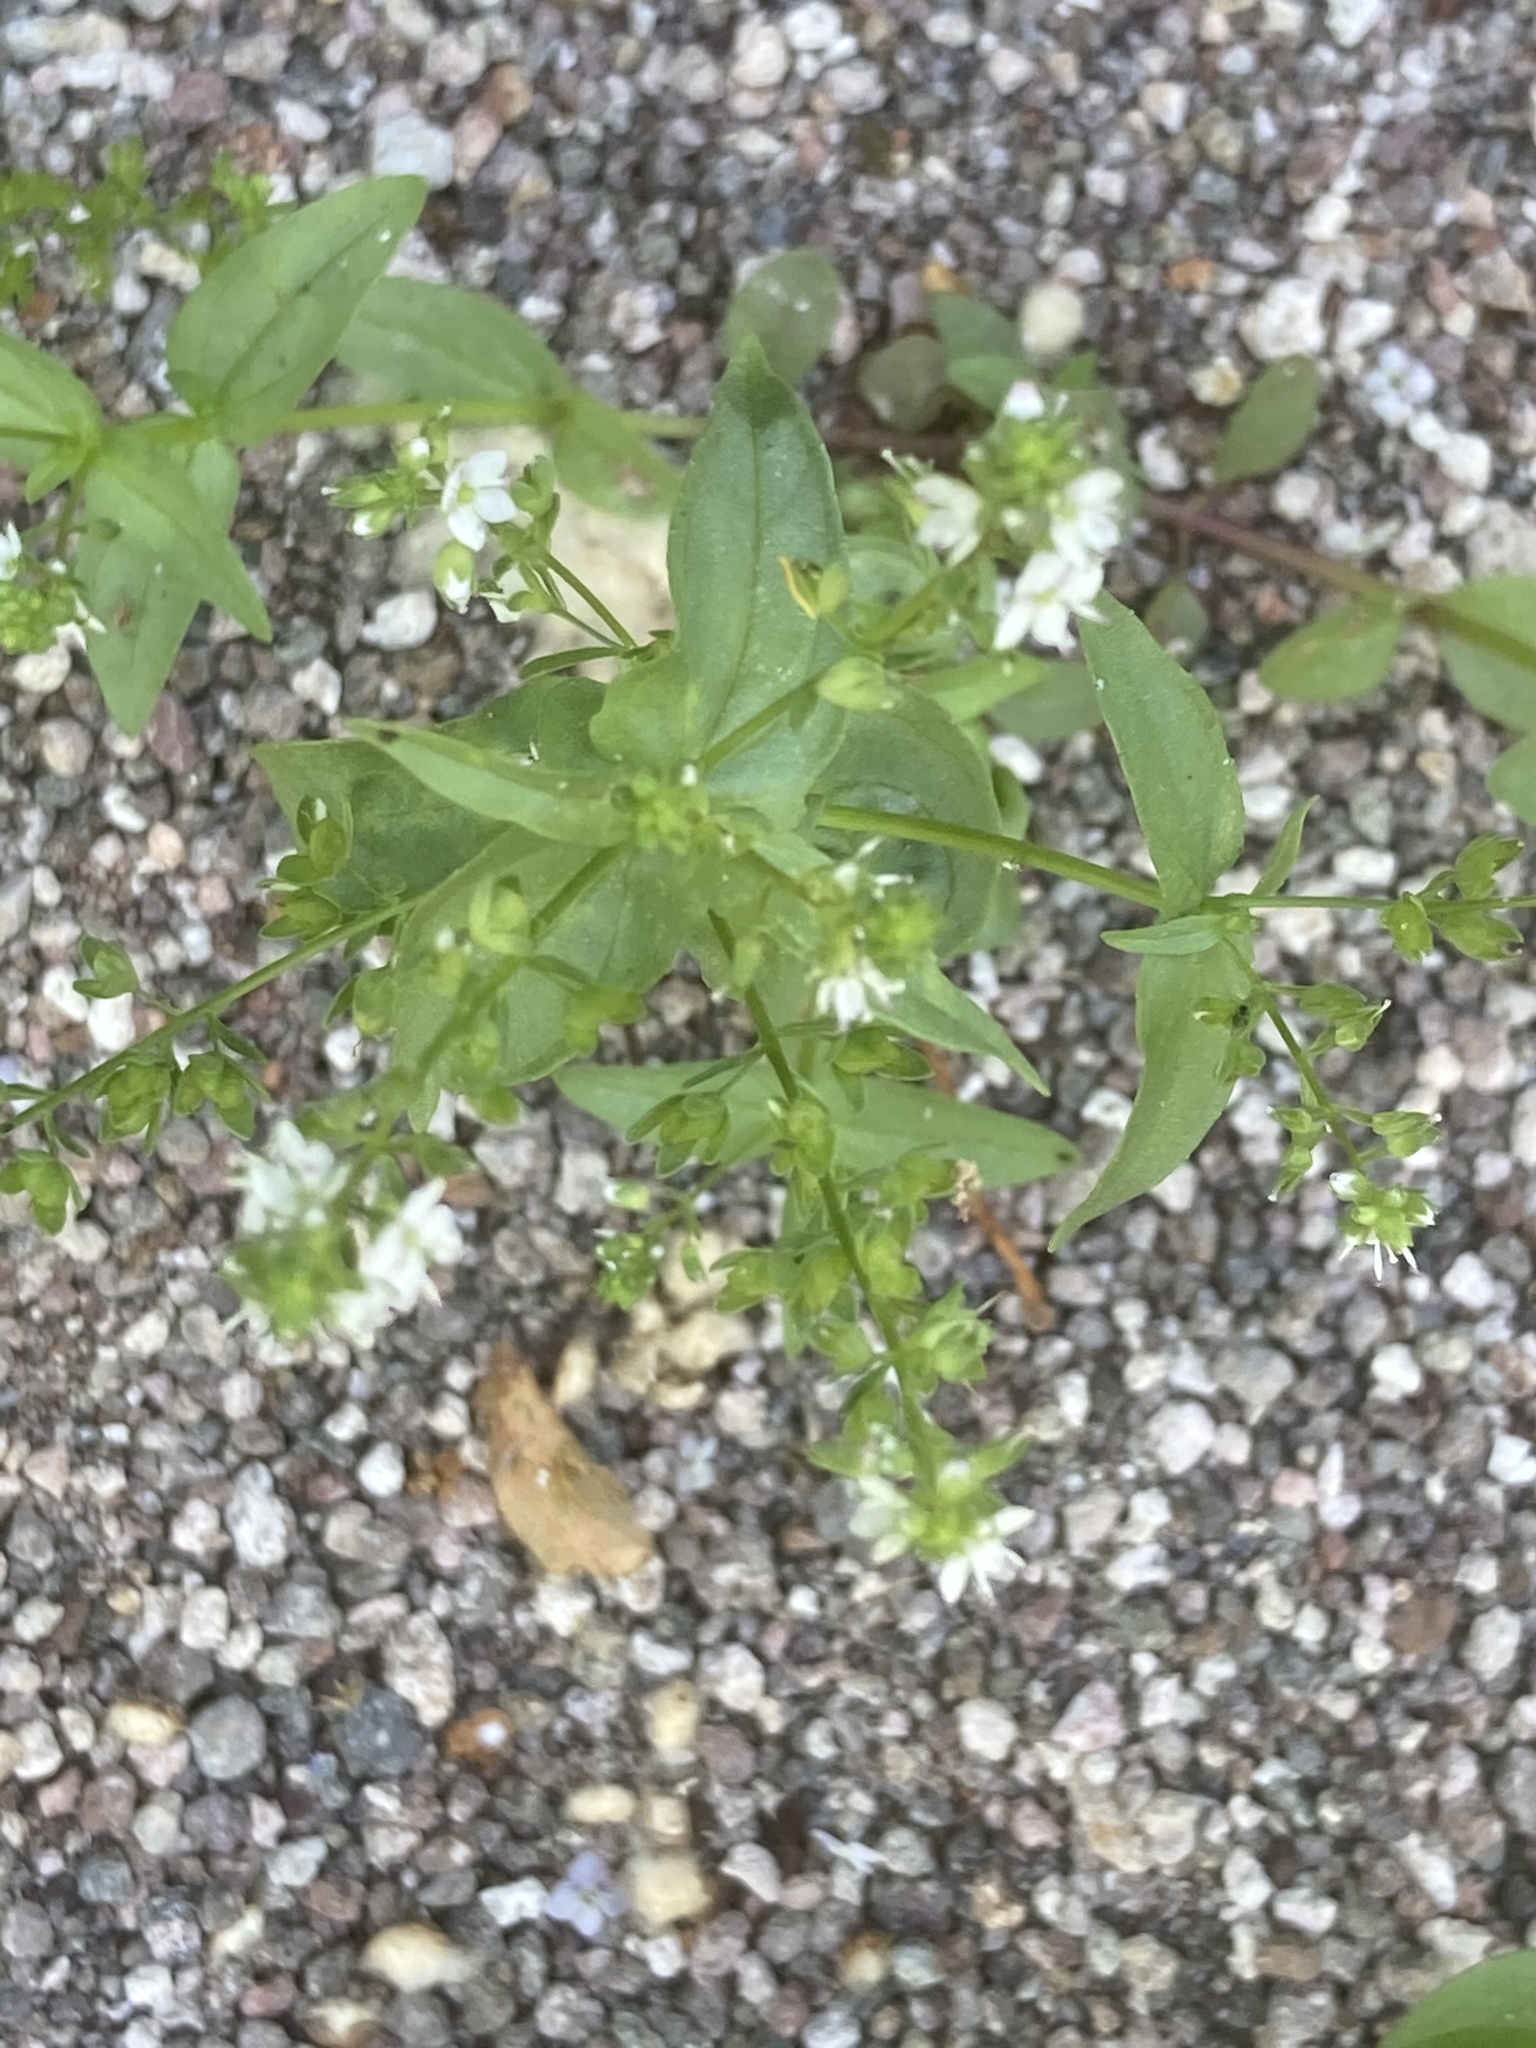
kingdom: Plantae
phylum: Tracheophyta
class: Magnoliopsida
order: Lamiales
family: Plantaginaceae
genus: Veronica
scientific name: Veronica anagallis-aquatica
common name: Water speedwell
